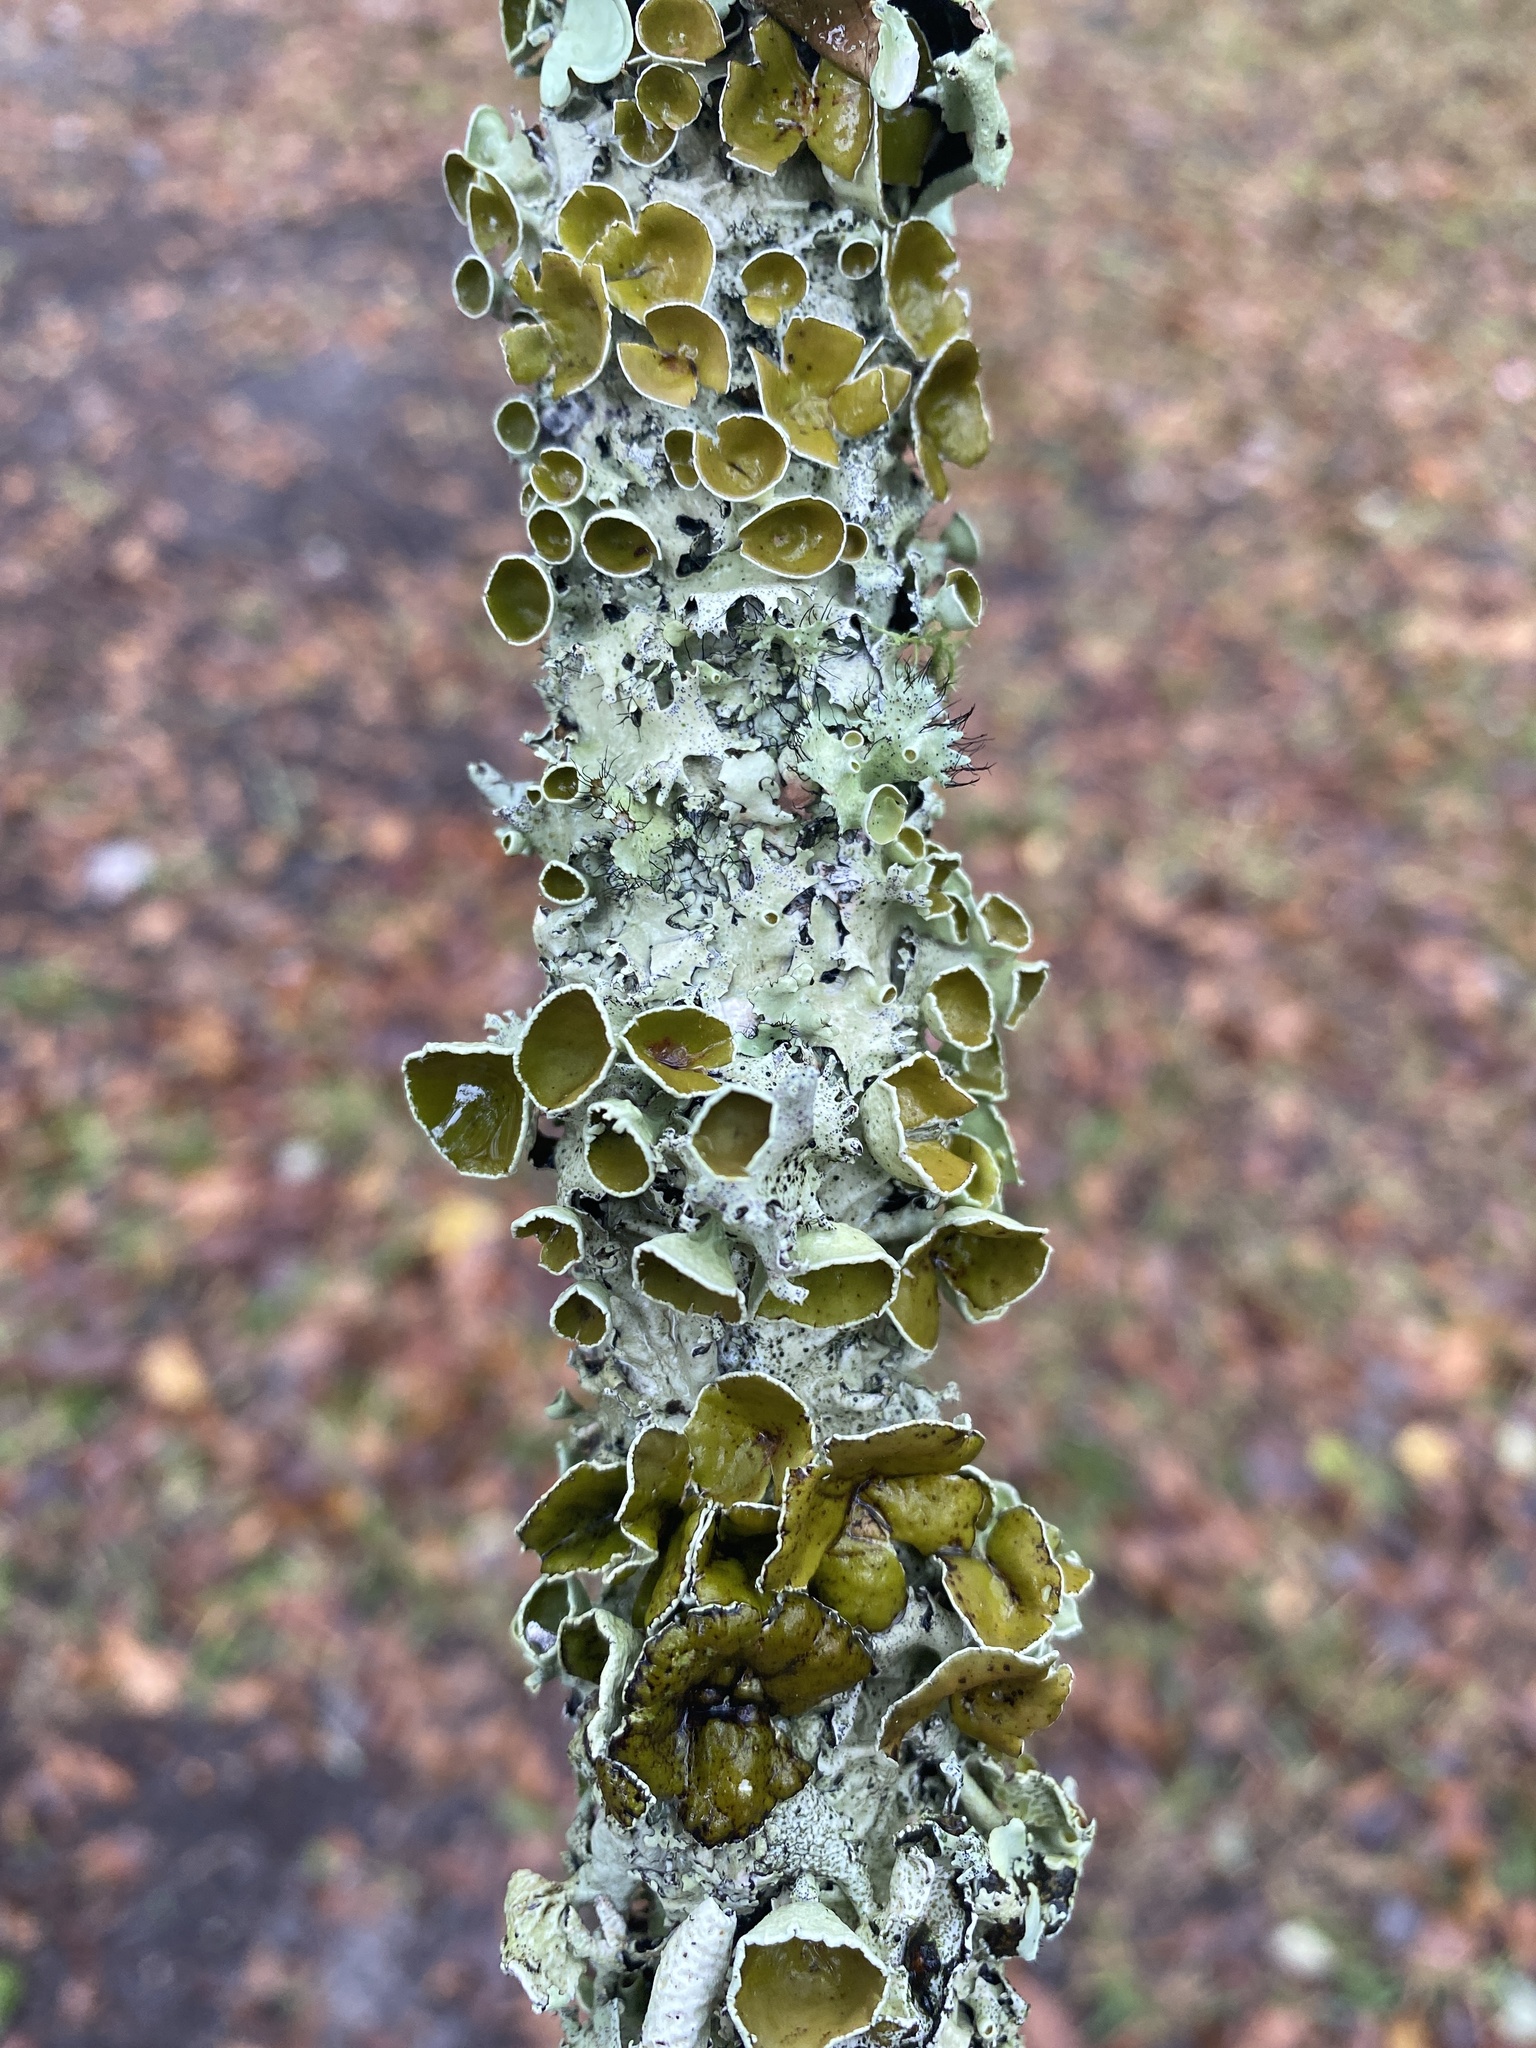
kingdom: Fungi
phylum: Ascomycota
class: Lecanoromycetes
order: Lecanorales
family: Parmeliaceae
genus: Parmotrema
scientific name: Parmotrema submarginale
